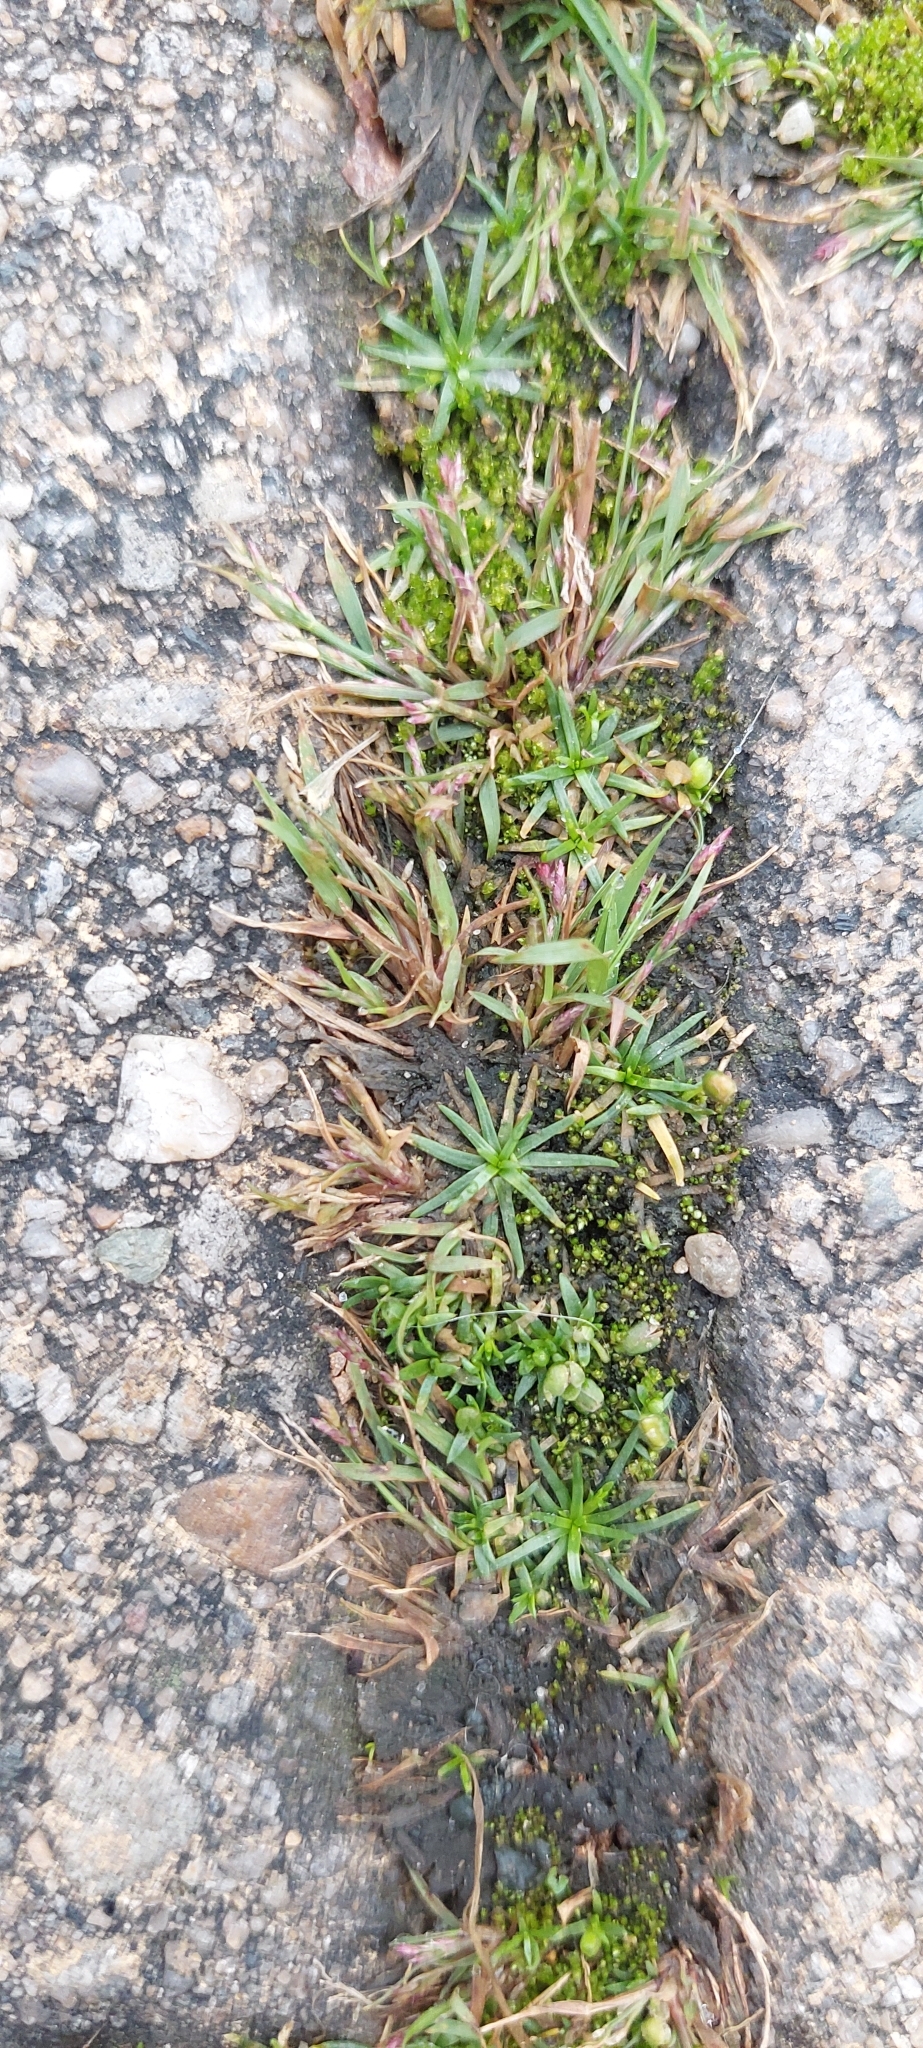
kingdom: Plantae
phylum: Tracheophyta
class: Magnoliopsida
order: Caryophyllales
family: Caryophyllaceae
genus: Sagina
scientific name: Sagina procumbens
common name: Procumbent pearlwort
